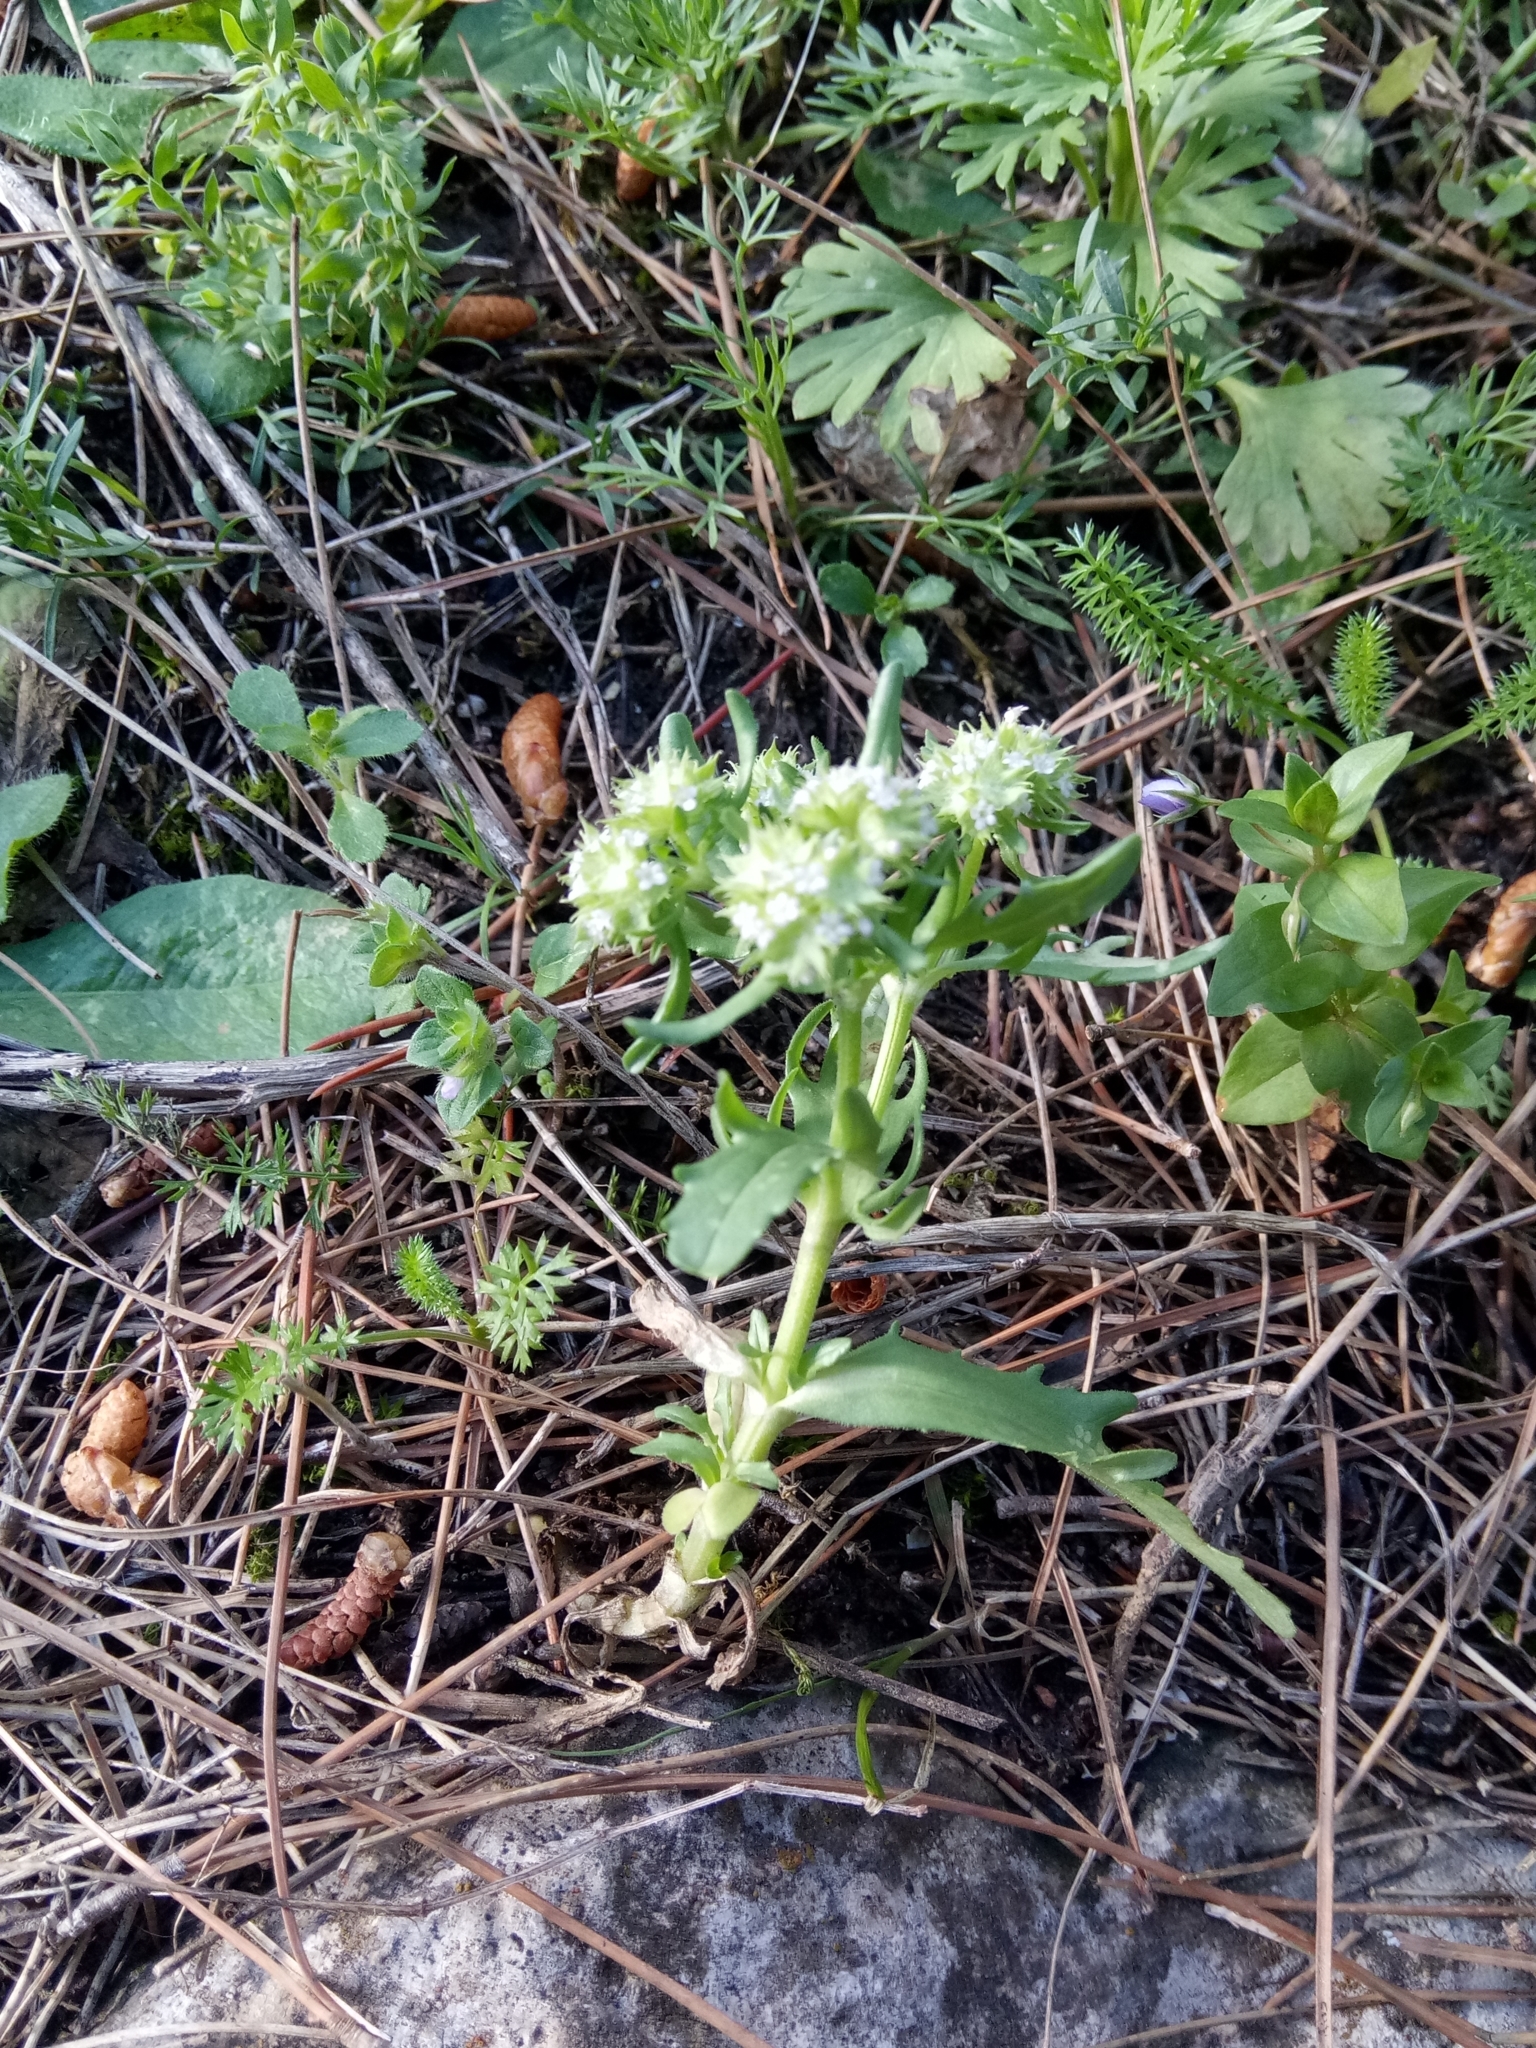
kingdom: Plantae
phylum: Tracheophyta
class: Magnoliopsida
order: Dipsacales
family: Caprifoliaceae
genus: Valerianella
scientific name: Valerianella discoidea
